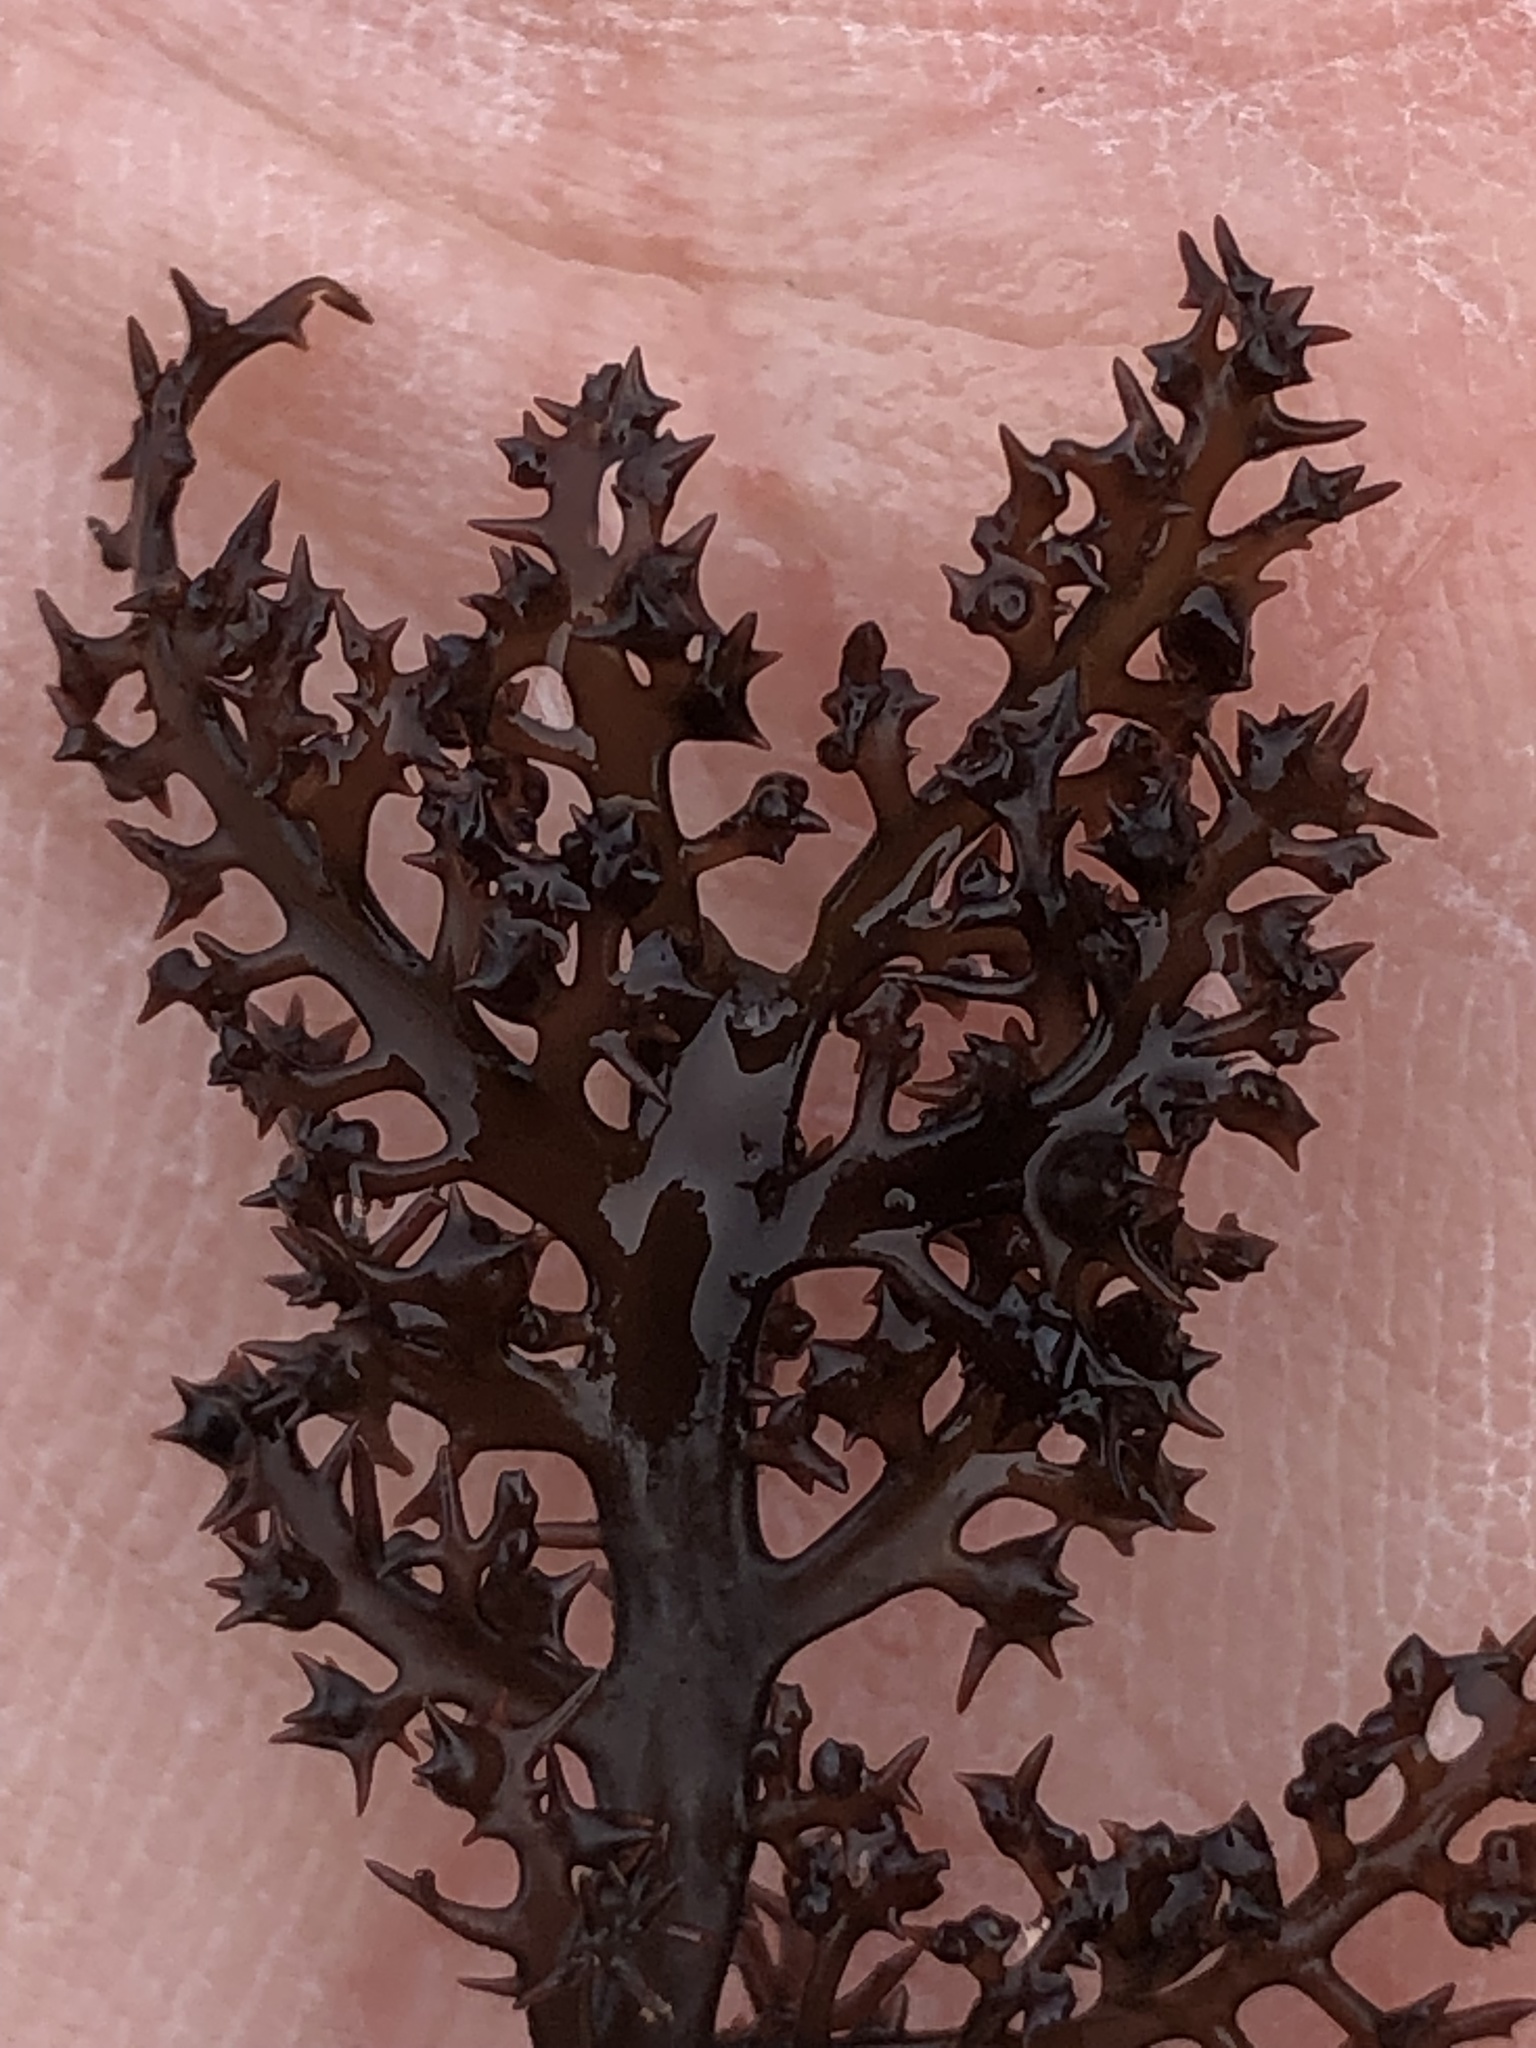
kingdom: Plantae
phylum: Rhodophyta
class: Florideophyceae
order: Gigartinales
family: Gigartinaceae
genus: Chondracanthus
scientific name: Chondracanthus canaliculatus
